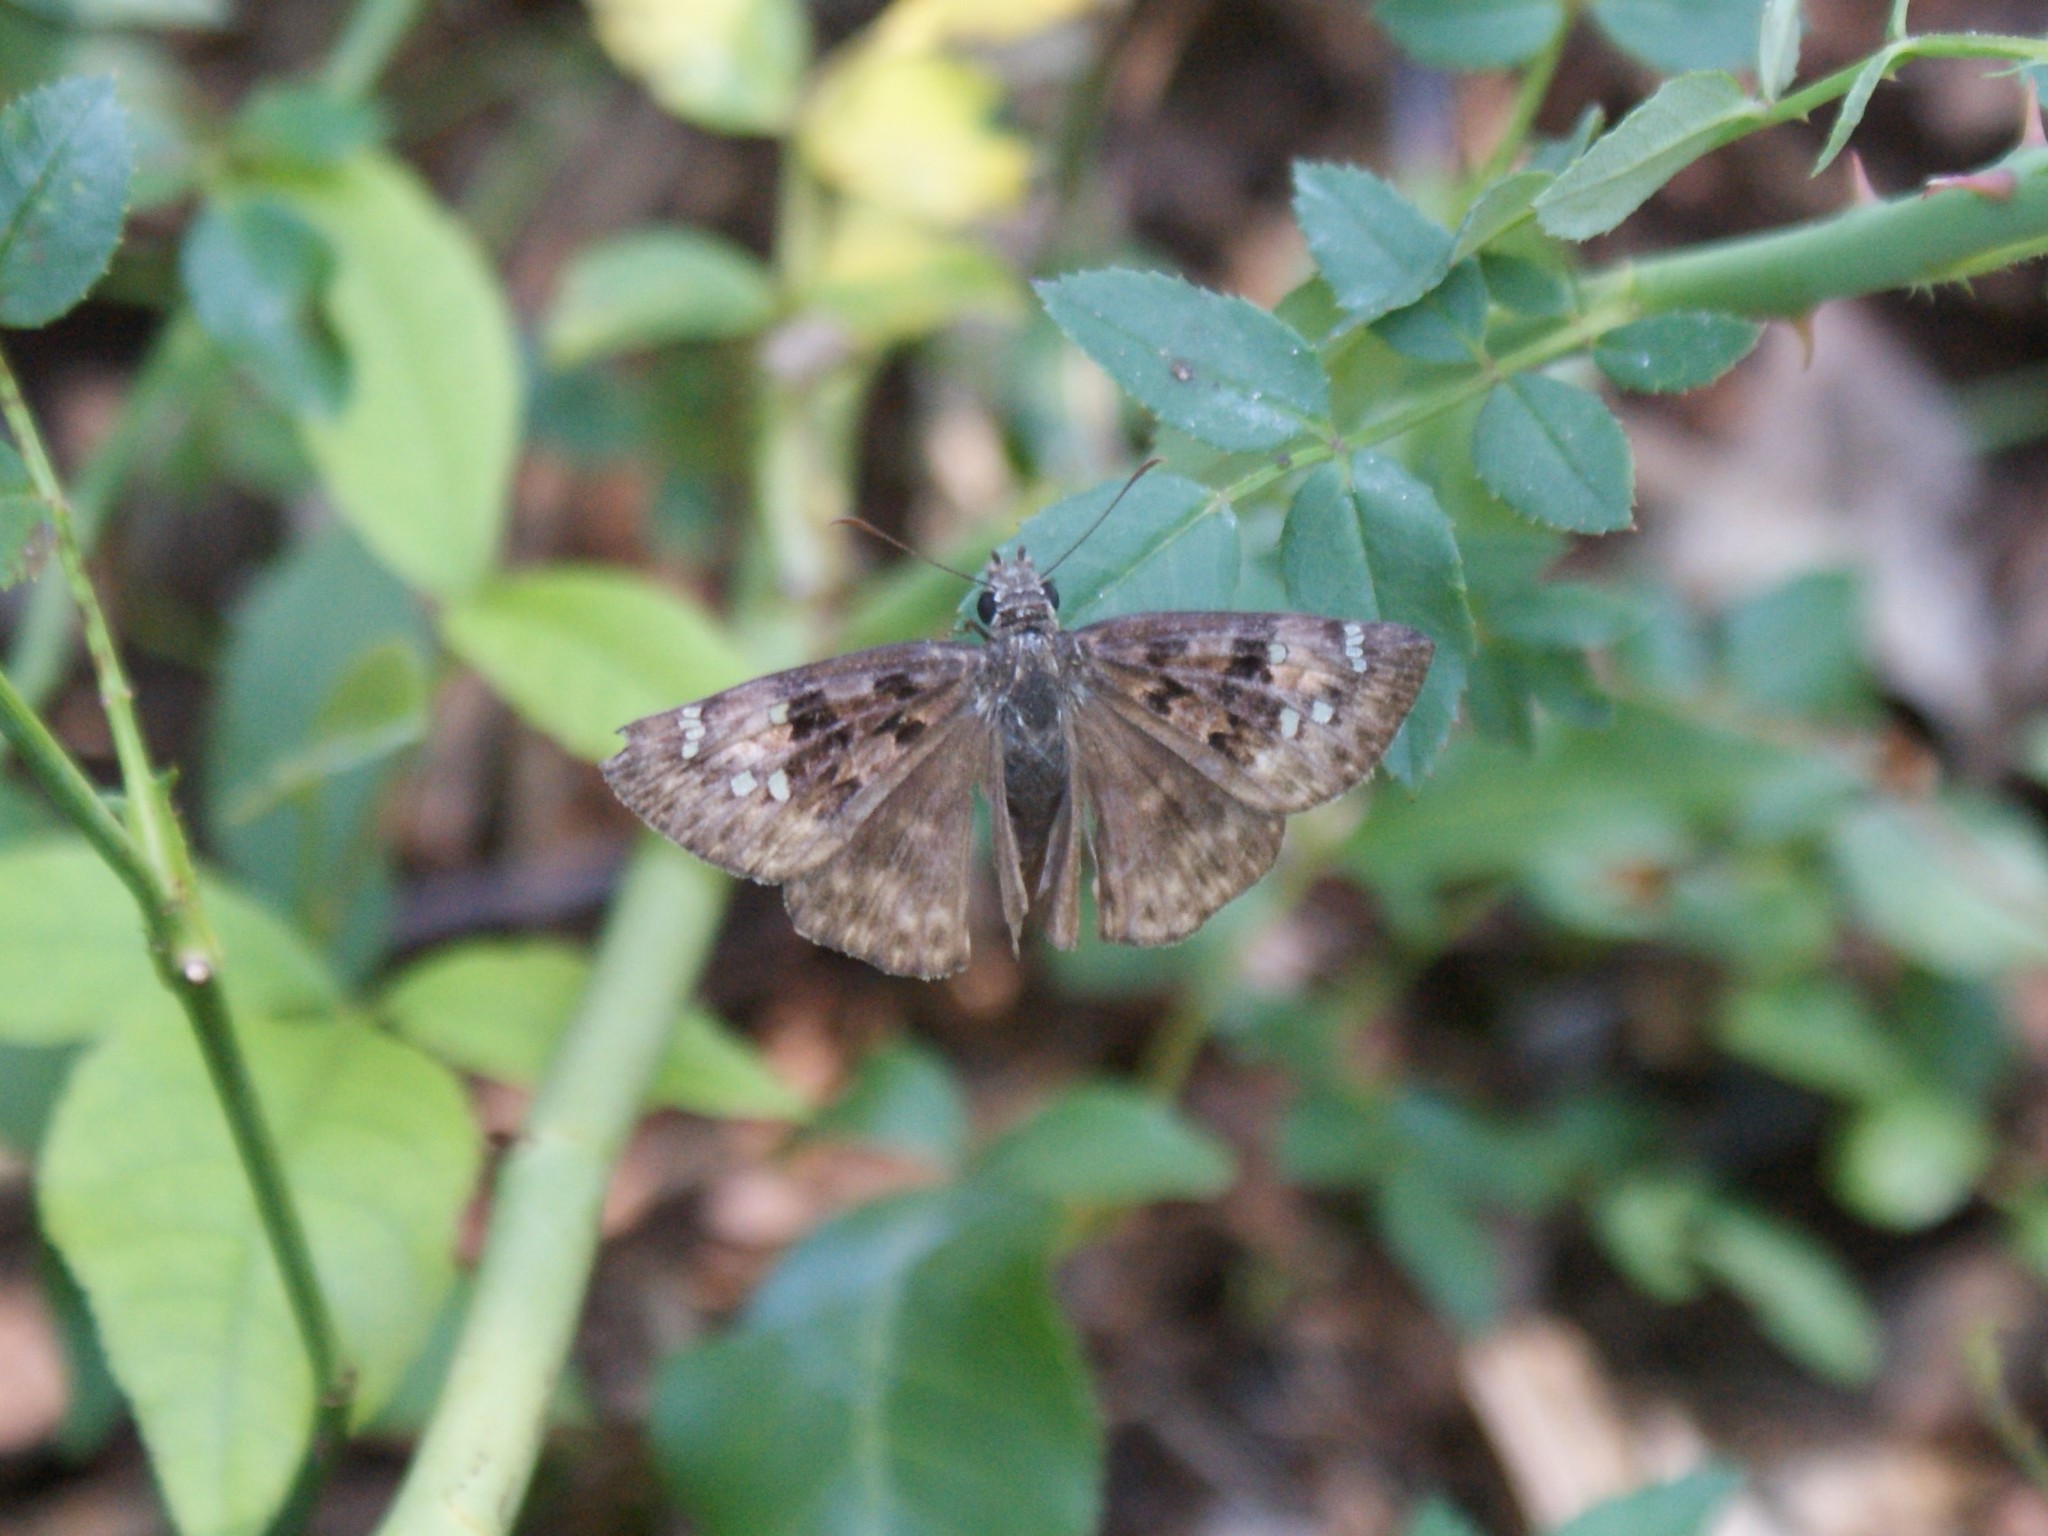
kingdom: Animalia
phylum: Arthropoda
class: Insecta
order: Lepidoptera
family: Hesperiidae
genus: Erynnis
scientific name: Erynnis horatius
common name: Horace's duskywing
